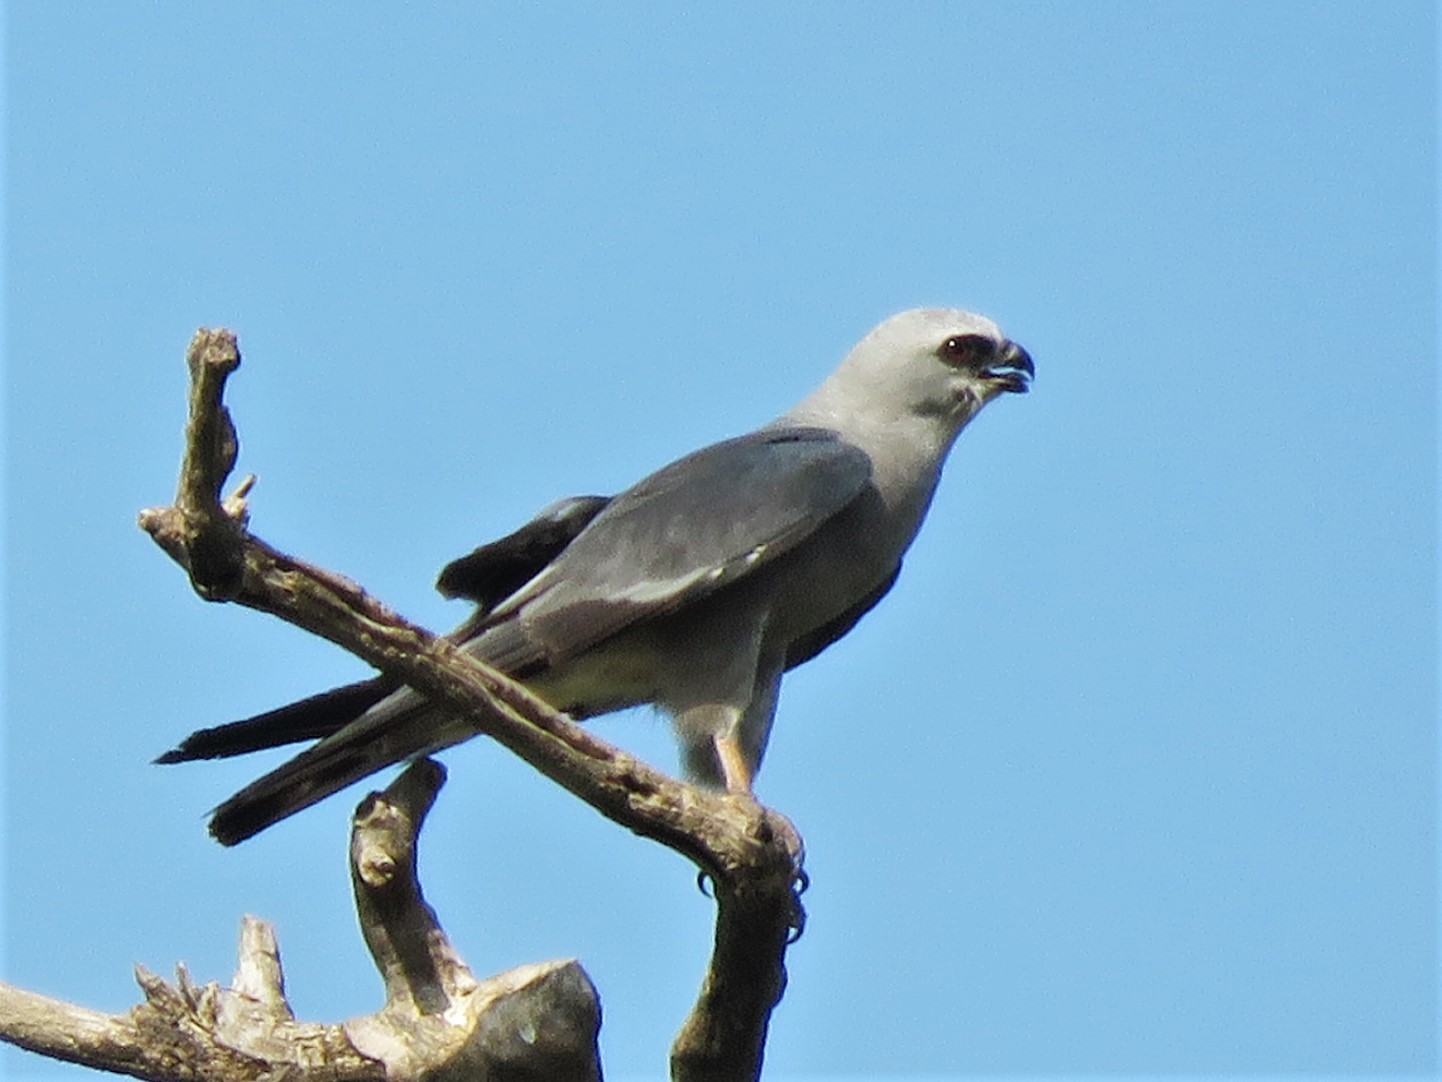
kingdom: Animalia
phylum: Chordata
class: Aves
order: Accipitriformes
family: Accipitridae
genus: Ictinia
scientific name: Ictinia mississippiensis
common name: Mississippi kite
